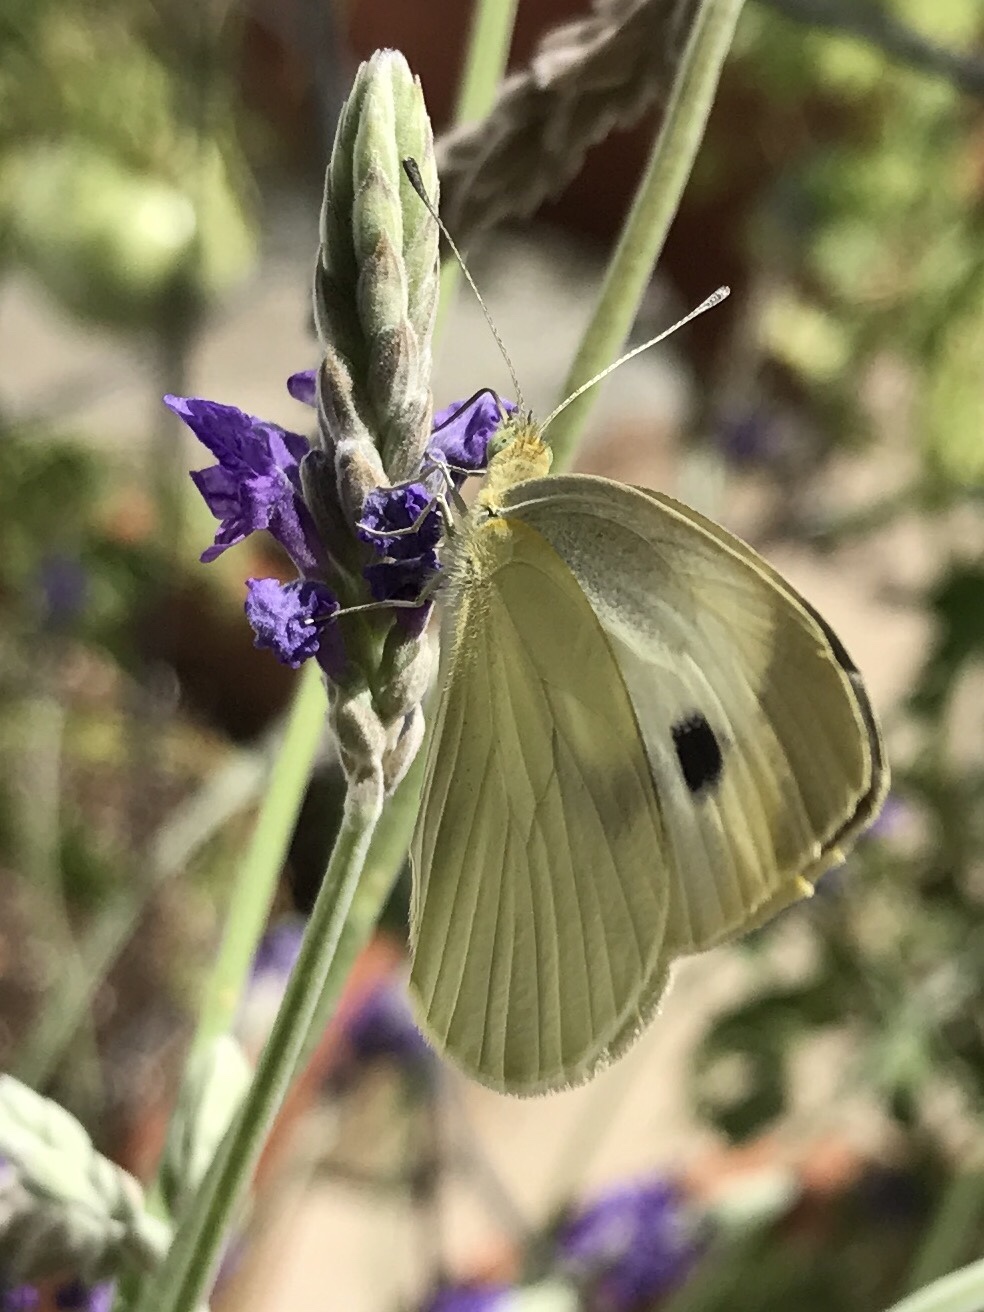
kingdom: Animalia
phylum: Arthropoda
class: Insecta
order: Lepidoptera
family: Pieridae
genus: Pieris
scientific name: Pieris rapae
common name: Small white
